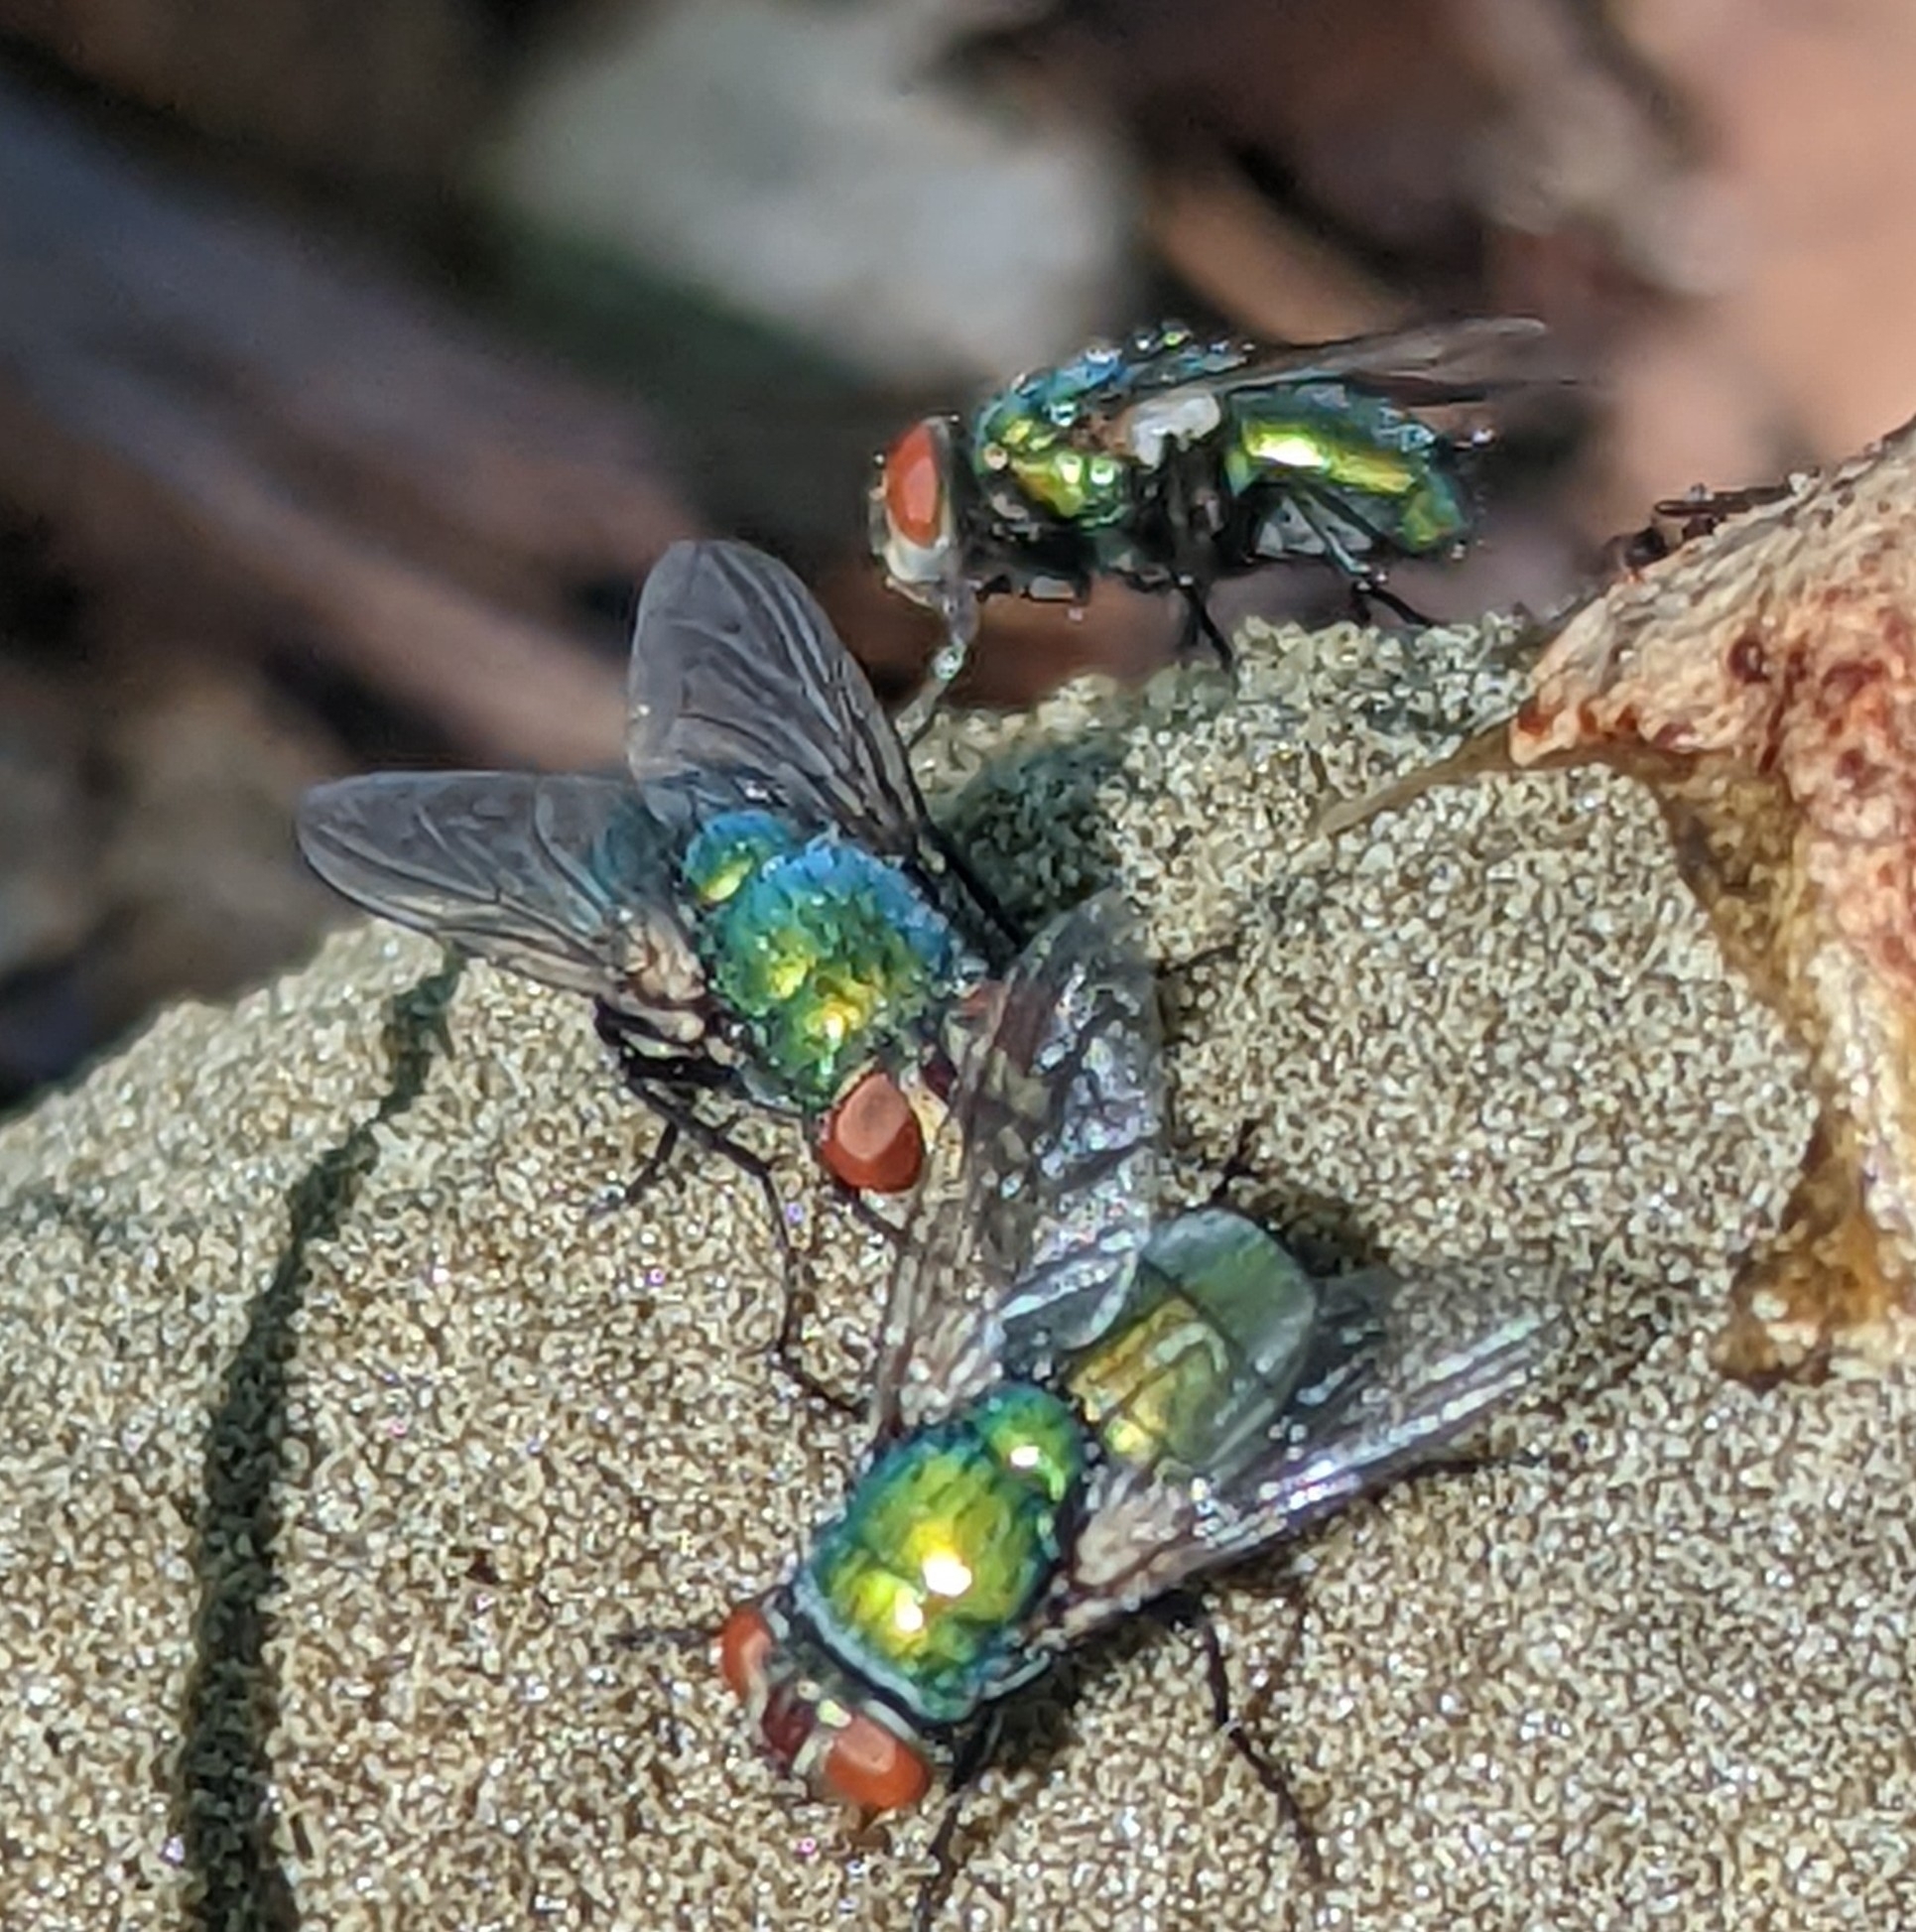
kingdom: Animalia
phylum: Arthropoda
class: Insecta
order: Diptera
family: Calliphoridae
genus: Lucilia
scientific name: Lucilia sericata
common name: Blow fly
